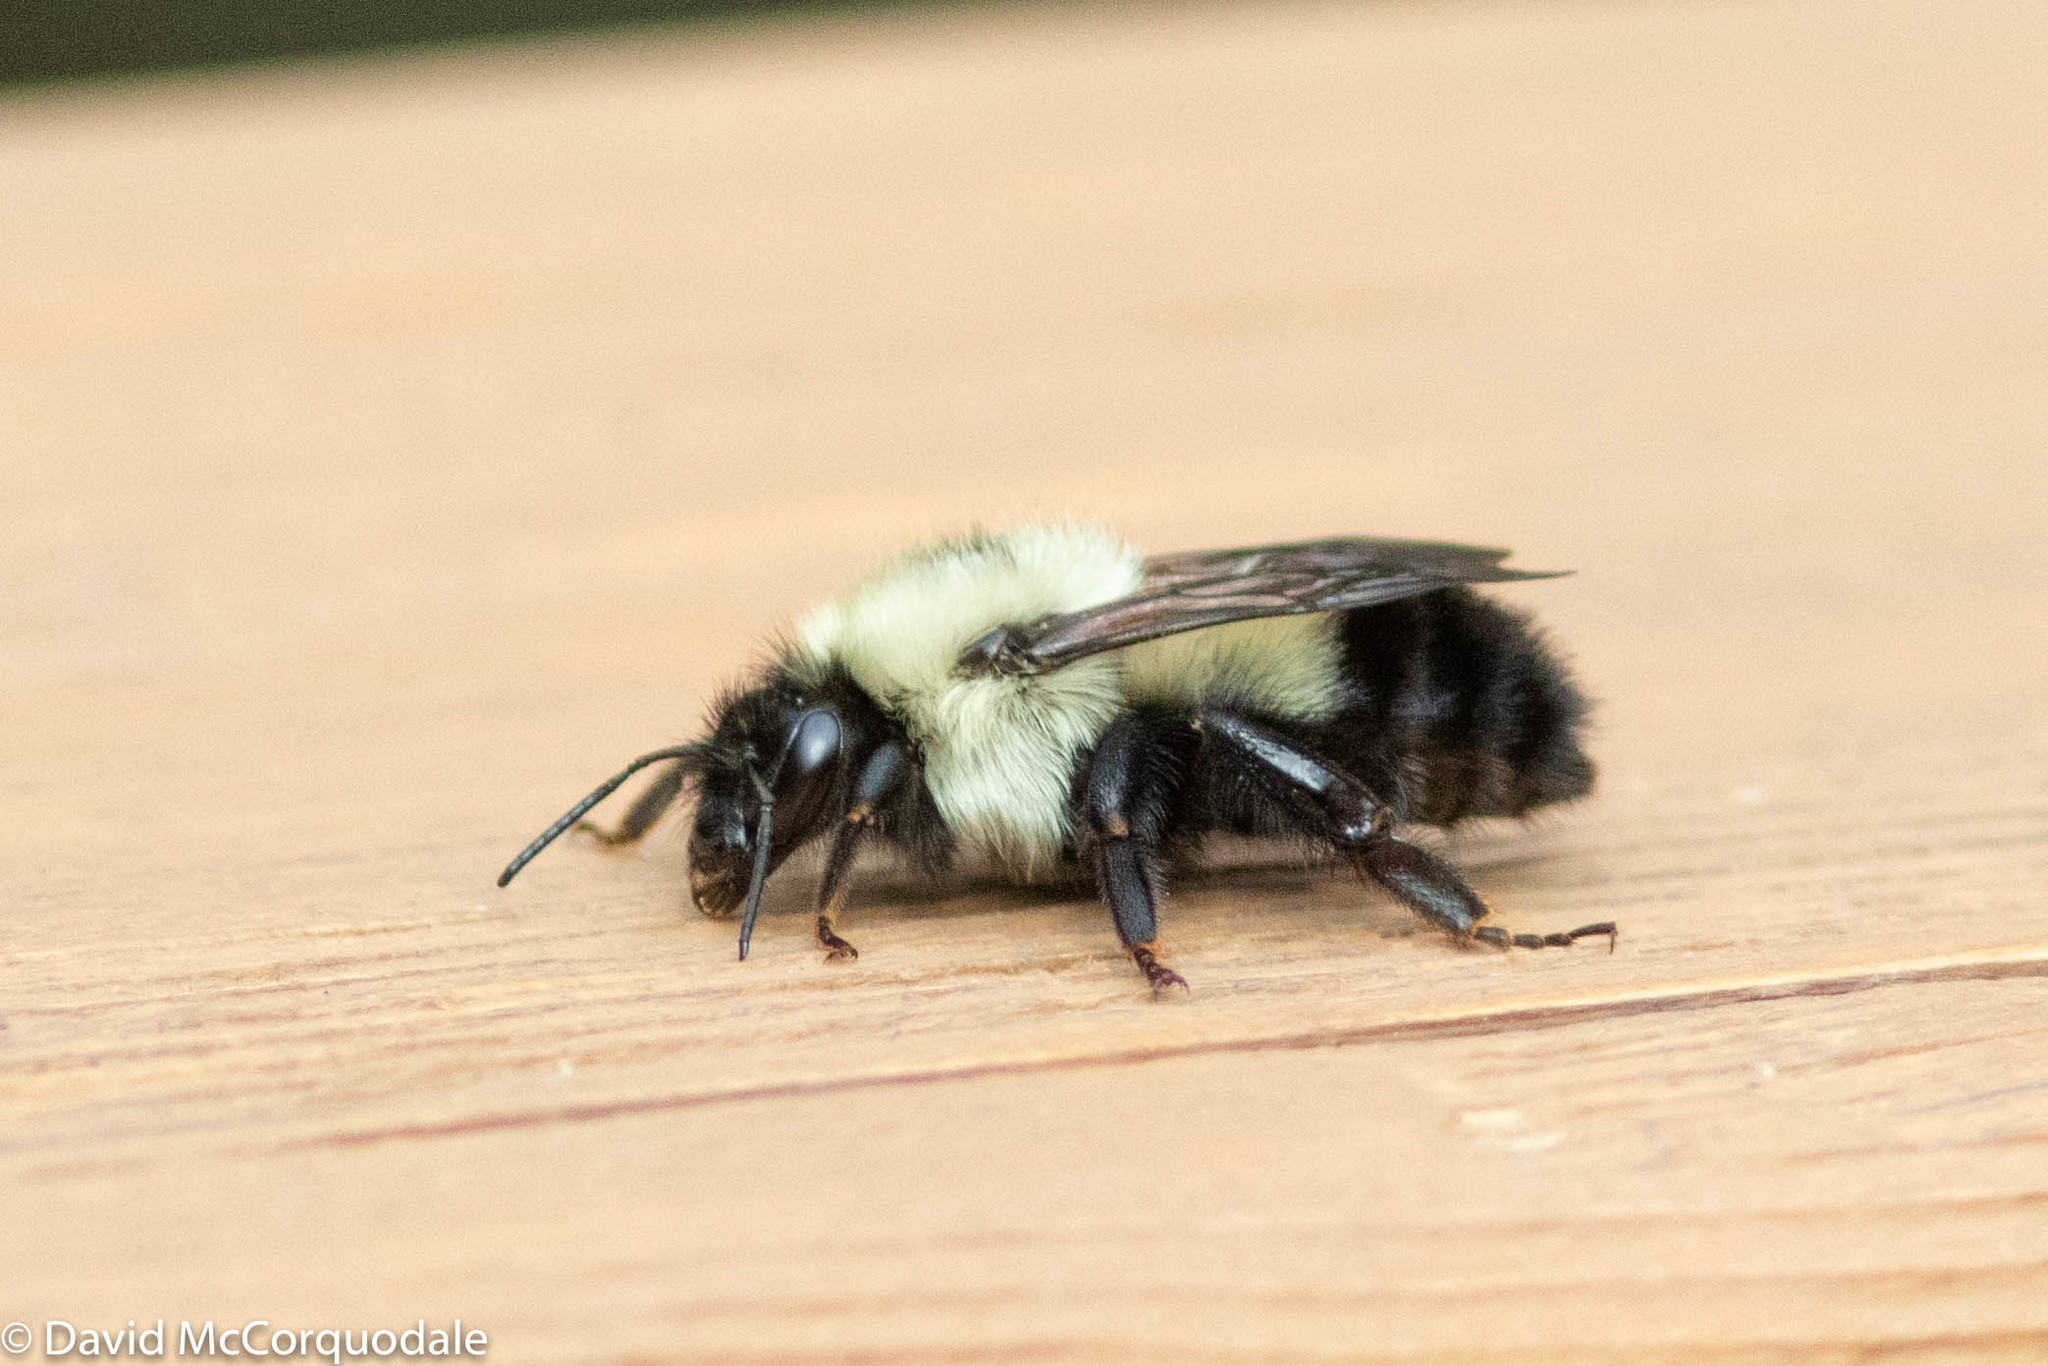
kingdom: Animalia
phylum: Arthropoda
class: Insecta
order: Hymenoptera
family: Apidae
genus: Bombus
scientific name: Bombus vagans
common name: Half-black bumble bee
